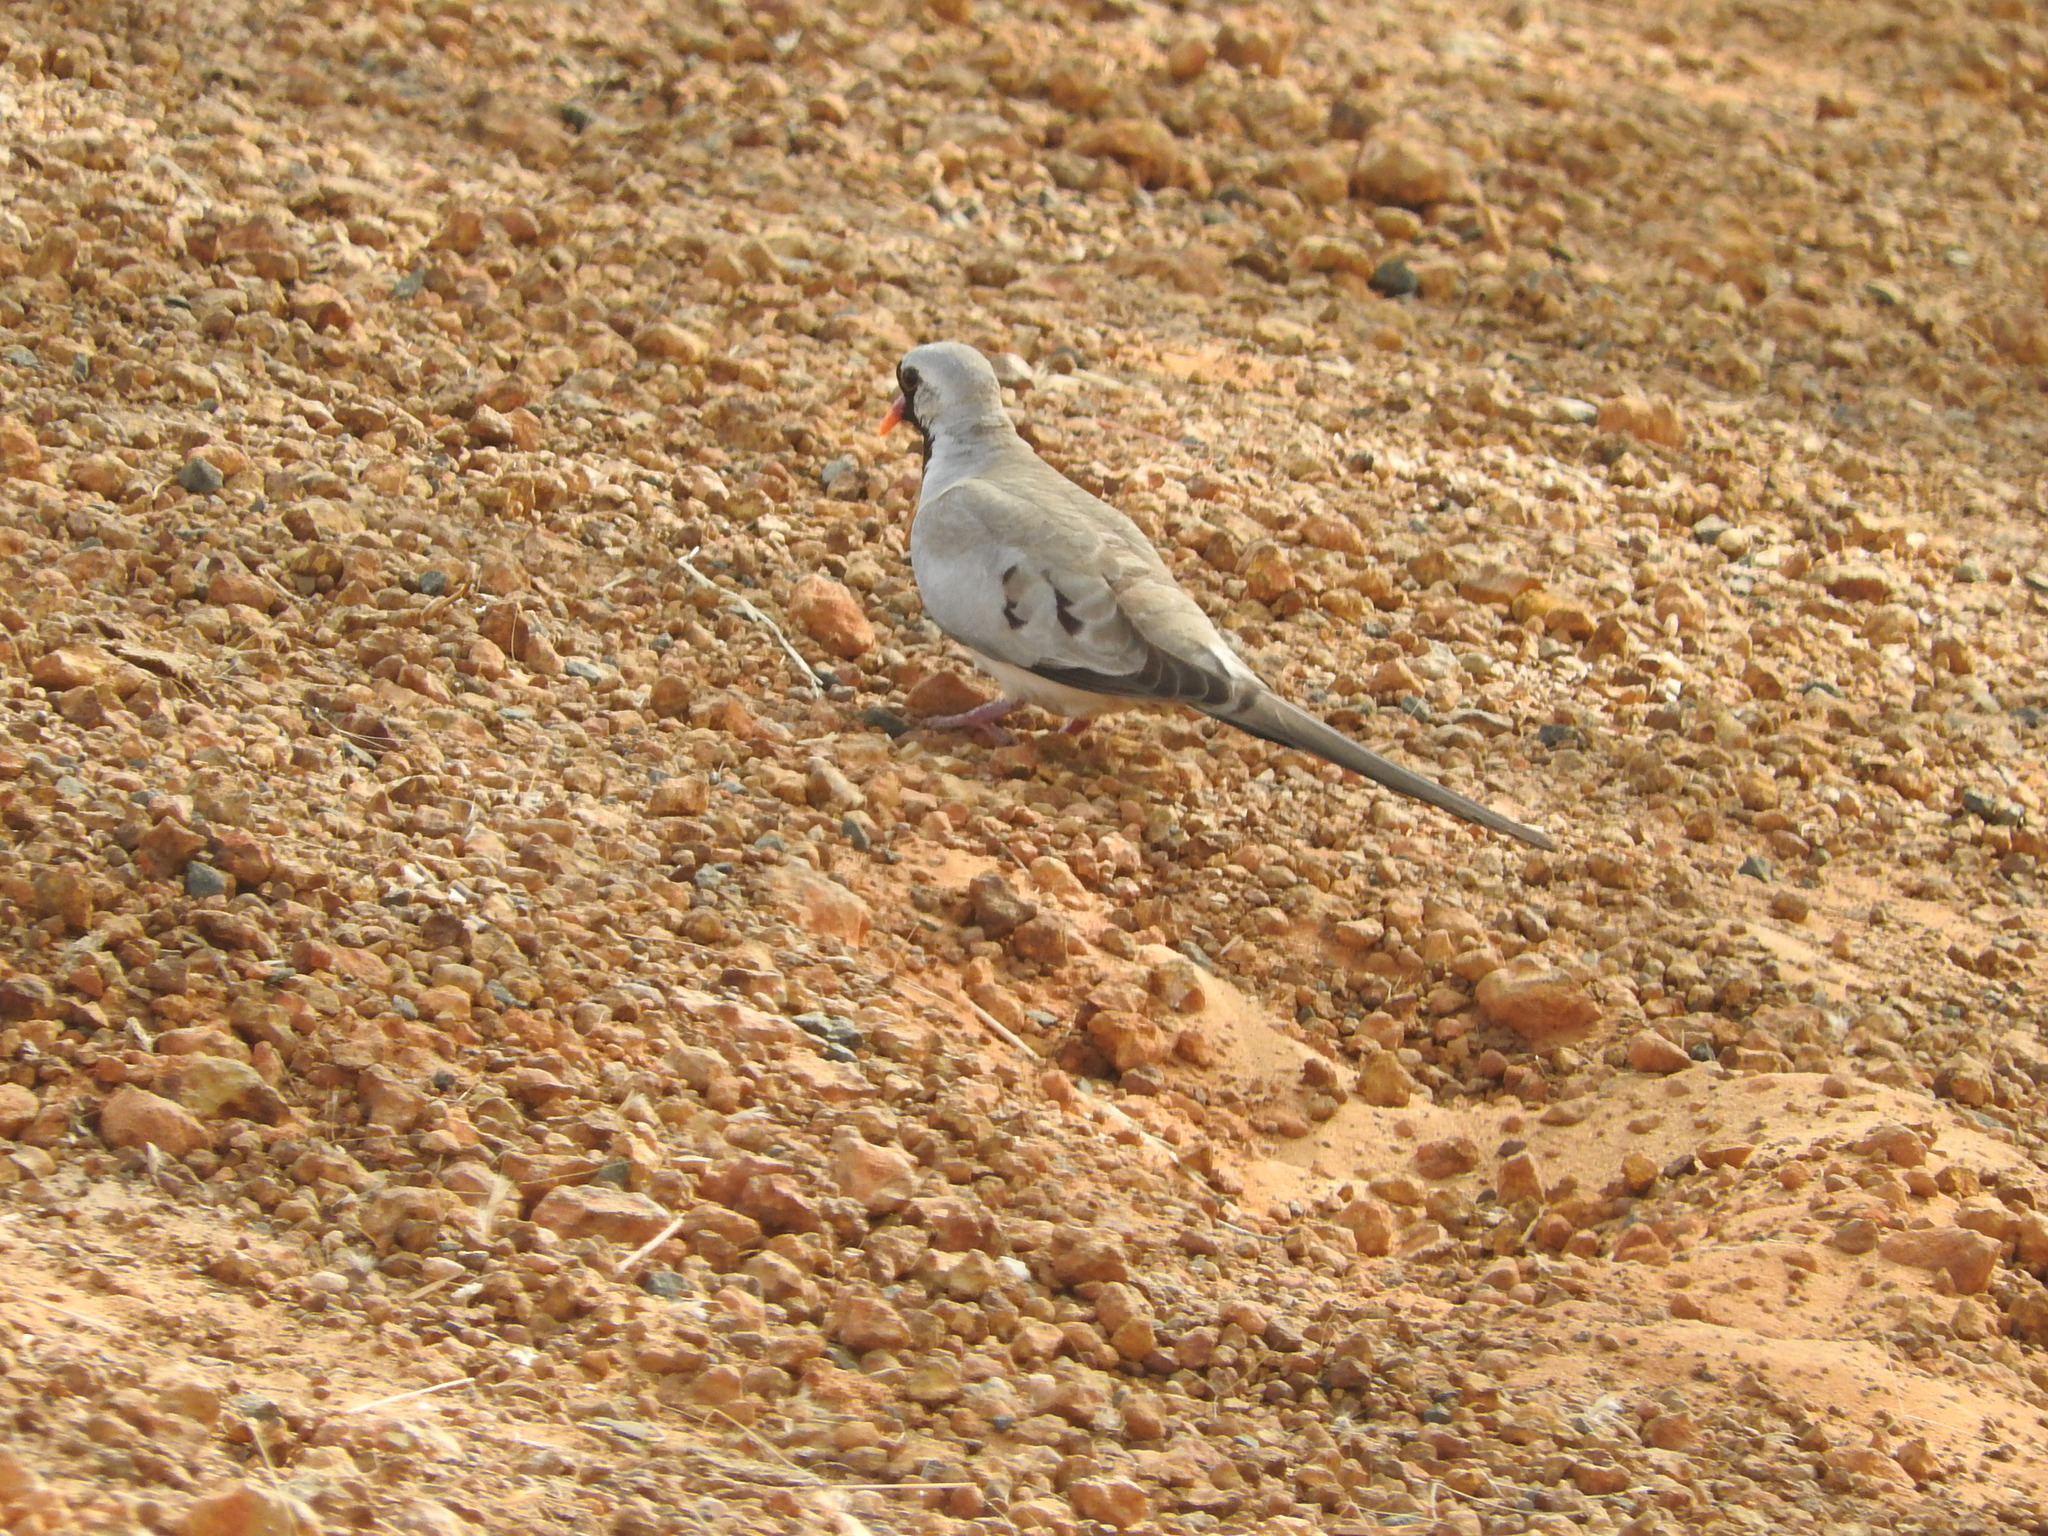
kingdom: Animalia
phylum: Chordata
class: Aves
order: Columbiformes
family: Columbidae
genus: Oena
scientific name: Oena capensis
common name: Namaqua dove
